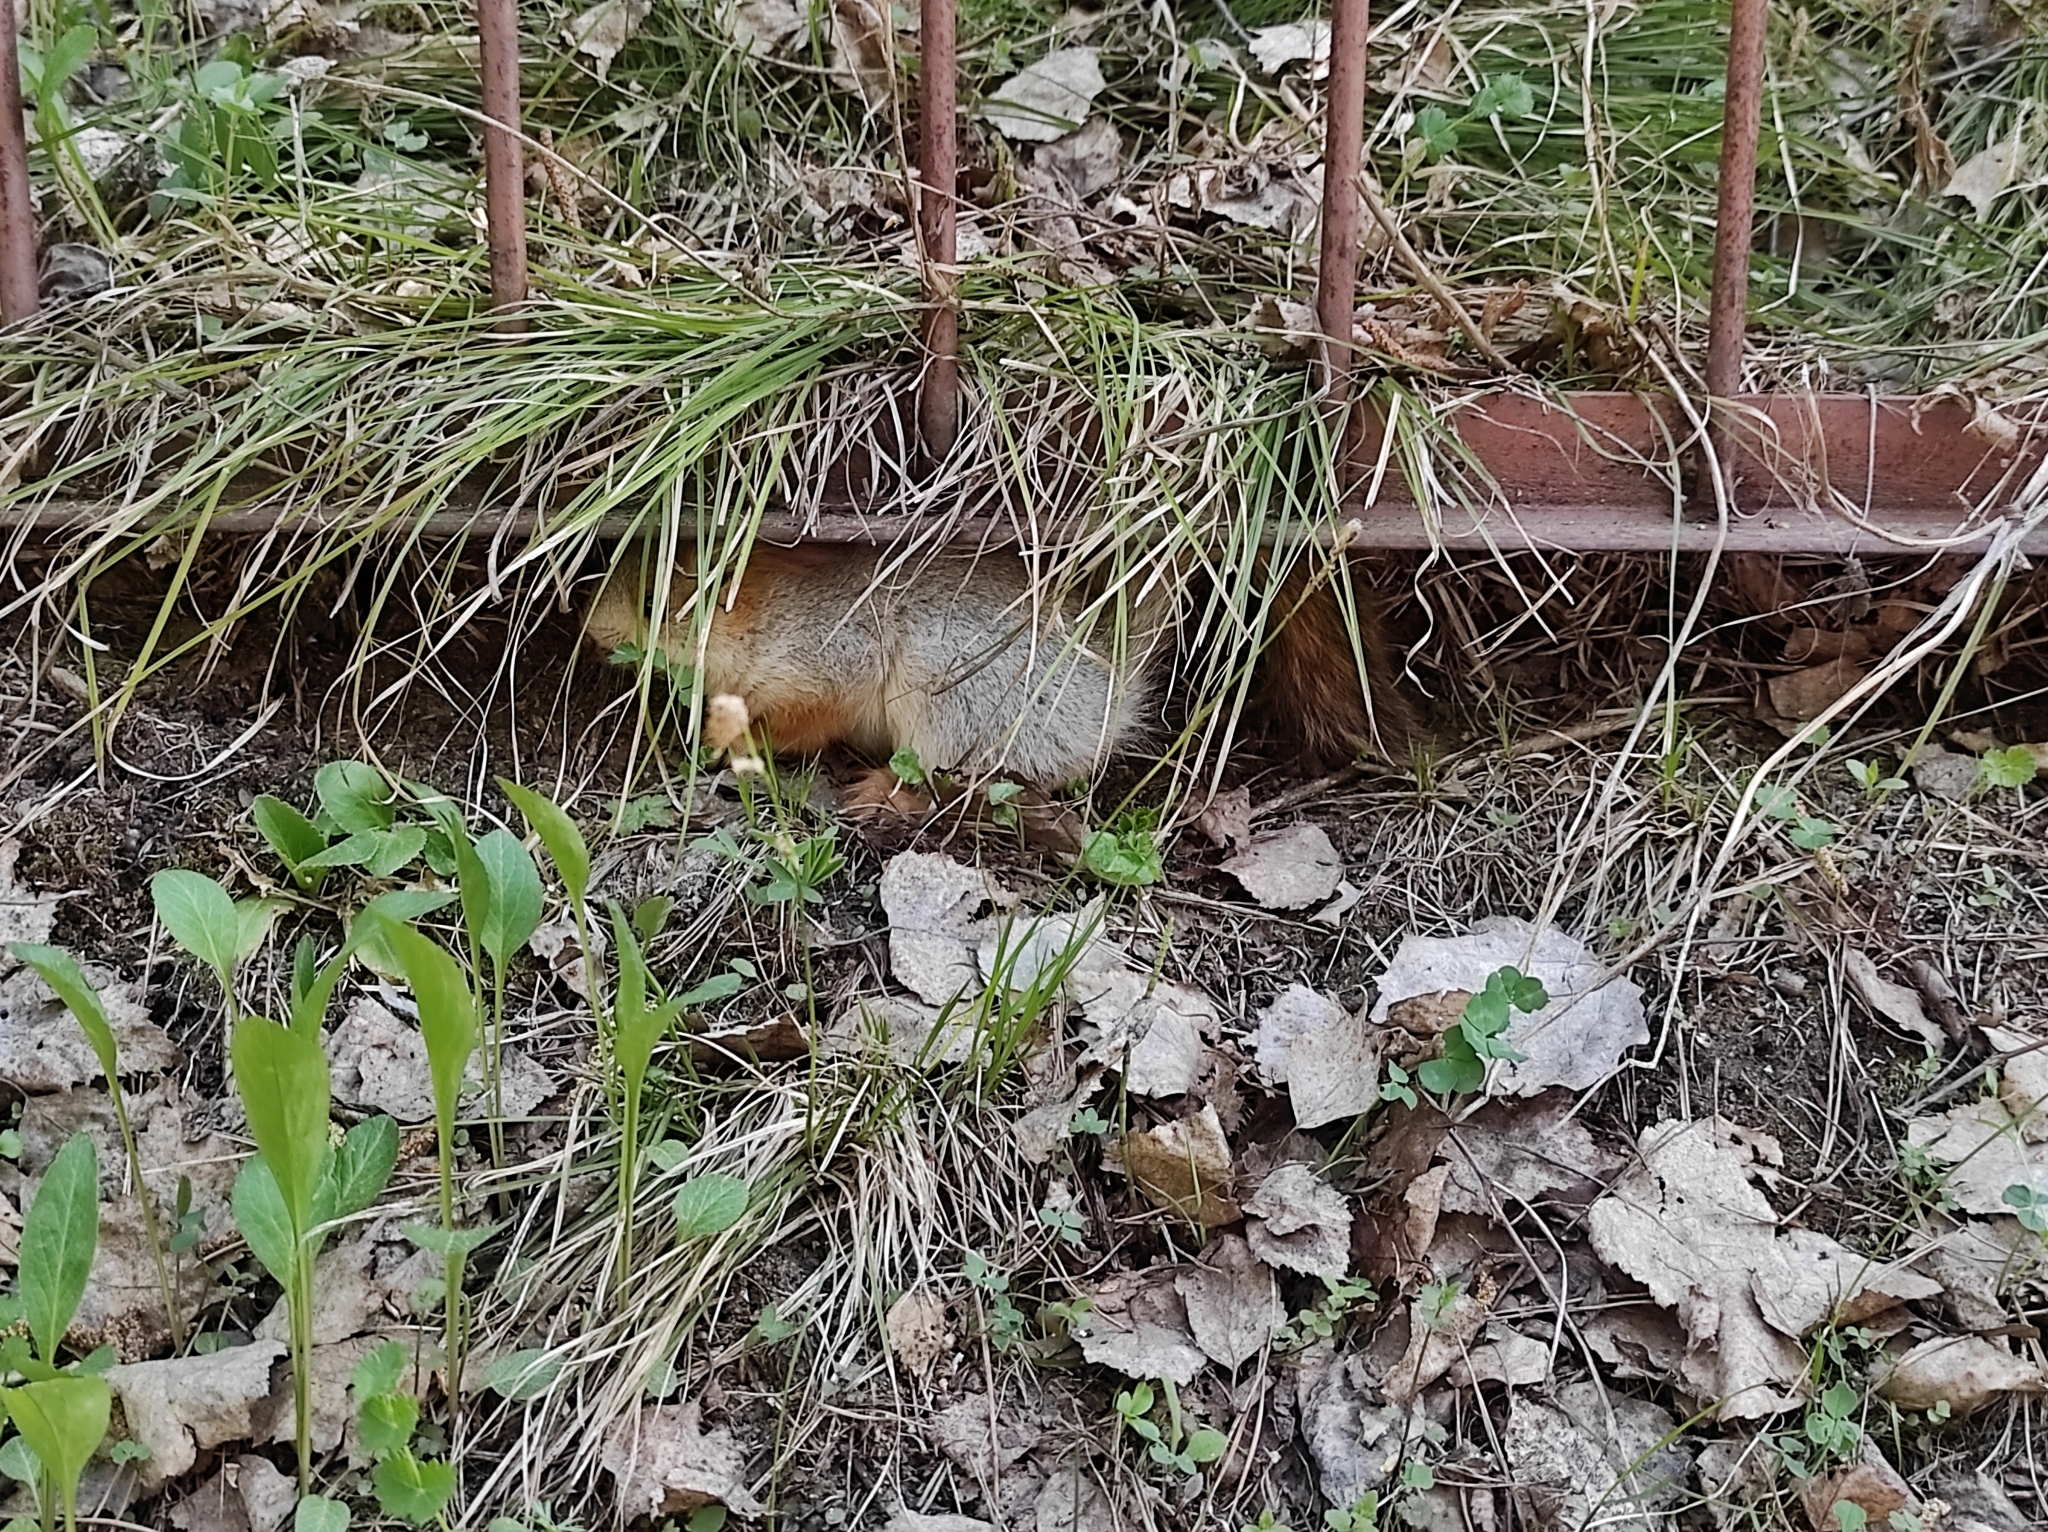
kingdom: Animalia
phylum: Chordata
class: Mammalia
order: Rodentia
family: Sciuridae
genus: Sciurus
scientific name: Sciurus vulgaris
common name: Eurasian red squirrel
